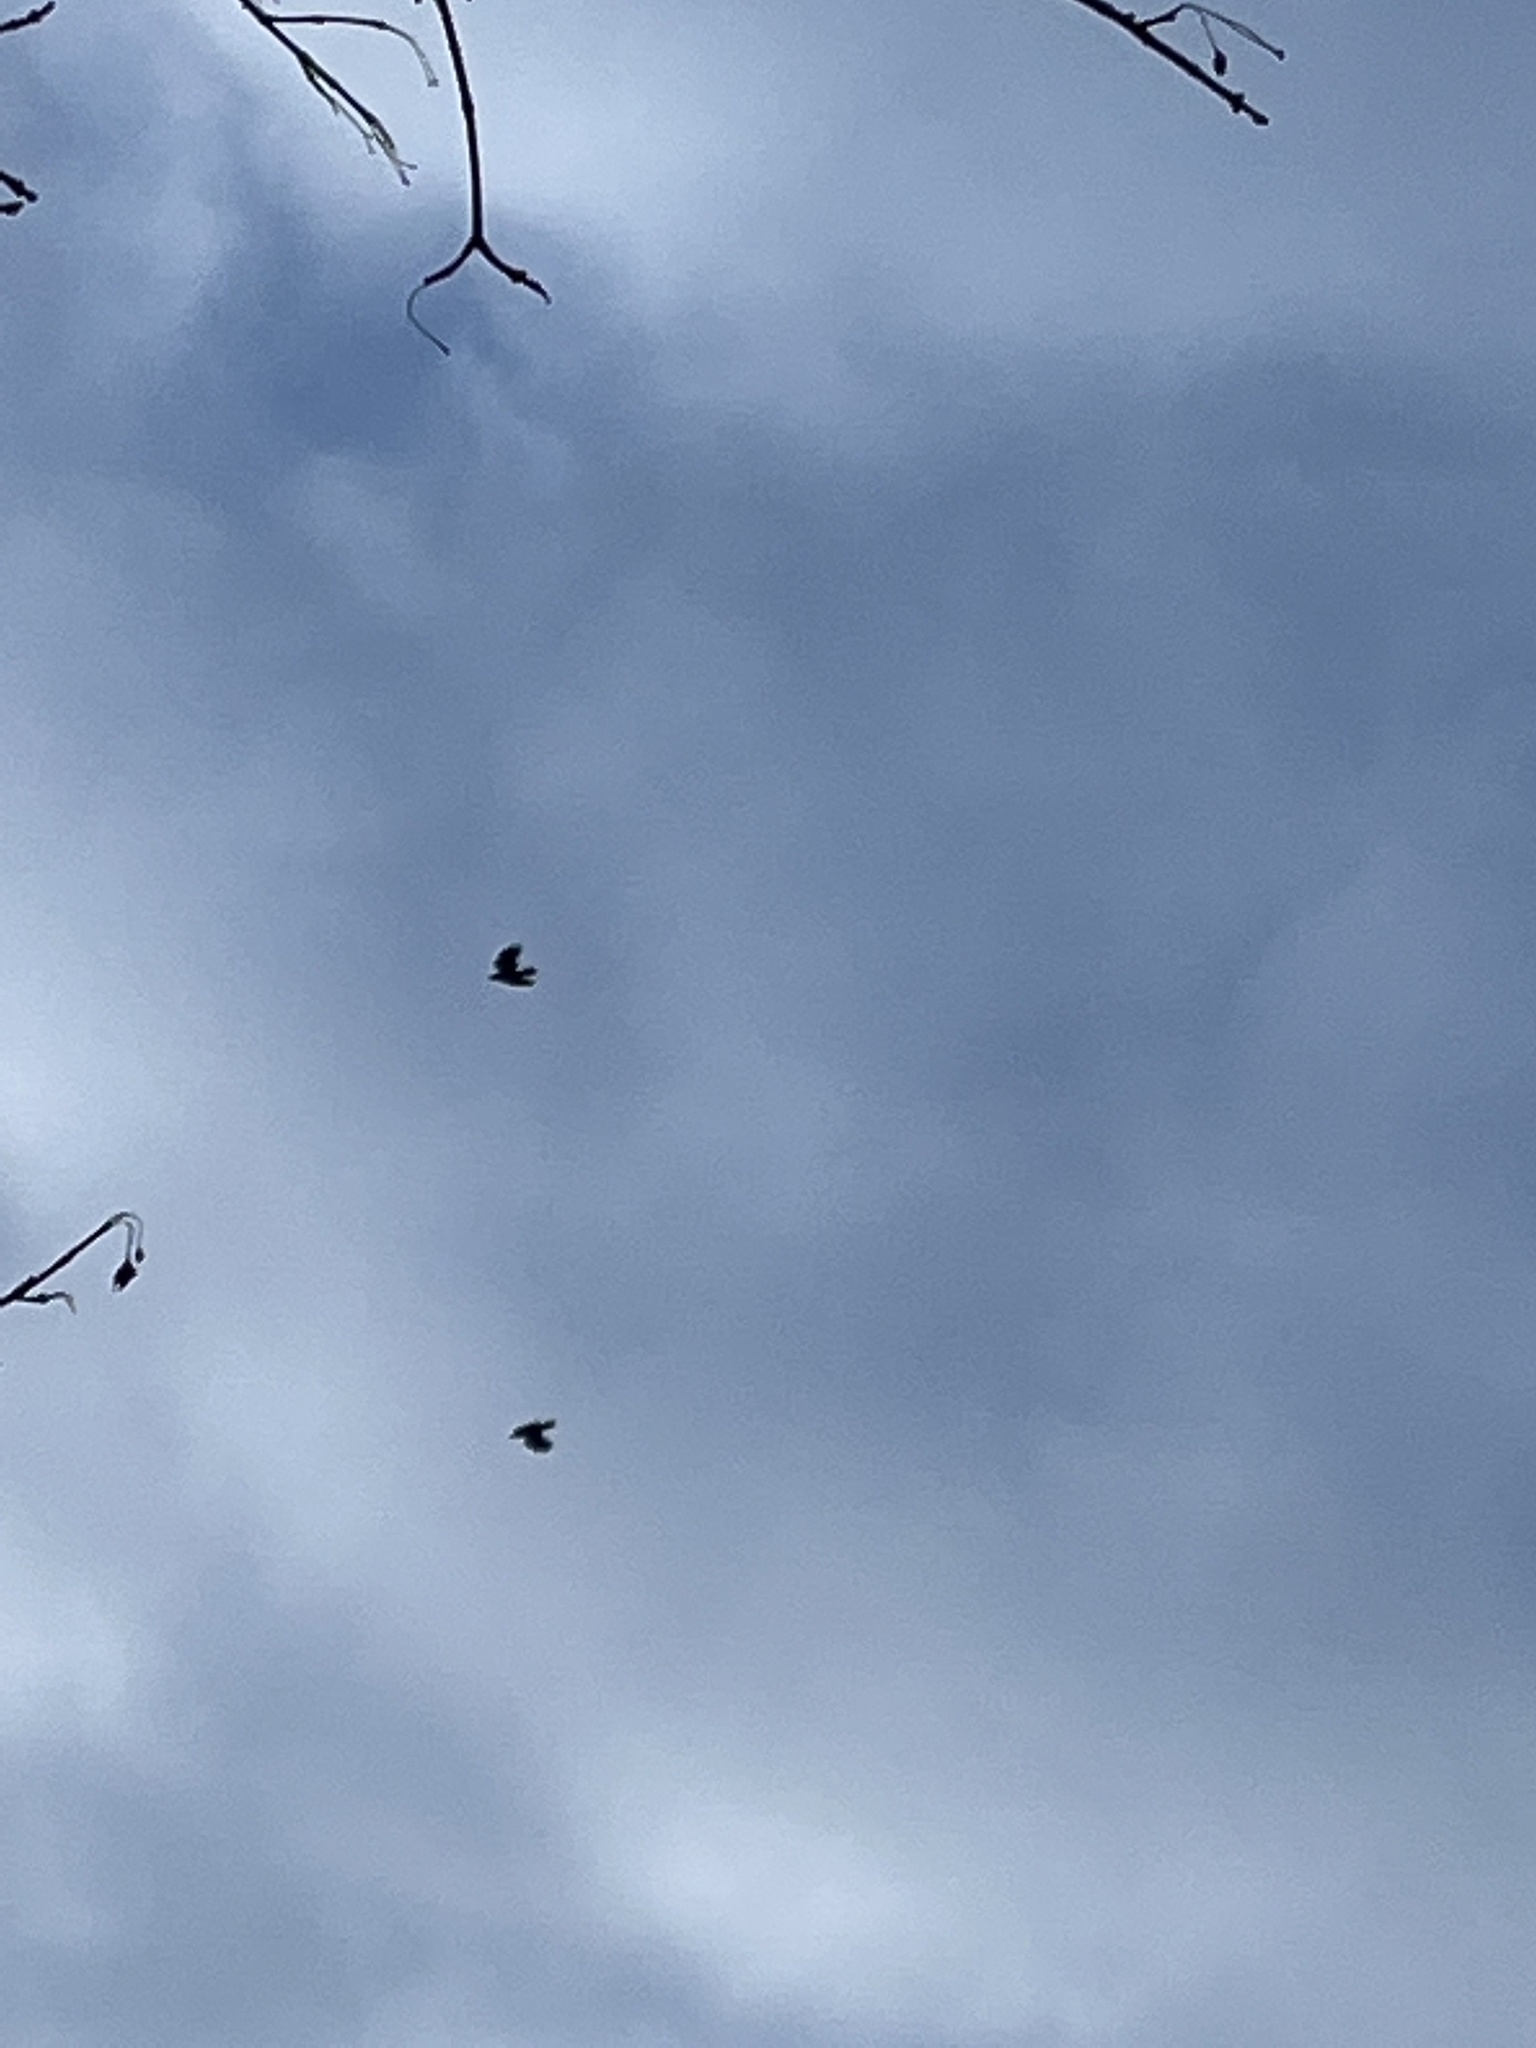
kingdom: Animalia
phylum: Chordata
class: Aves
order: Passeriformes
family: Corvidae
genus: Corvus
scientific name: Corvus brachyrhynchos
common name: American crow
